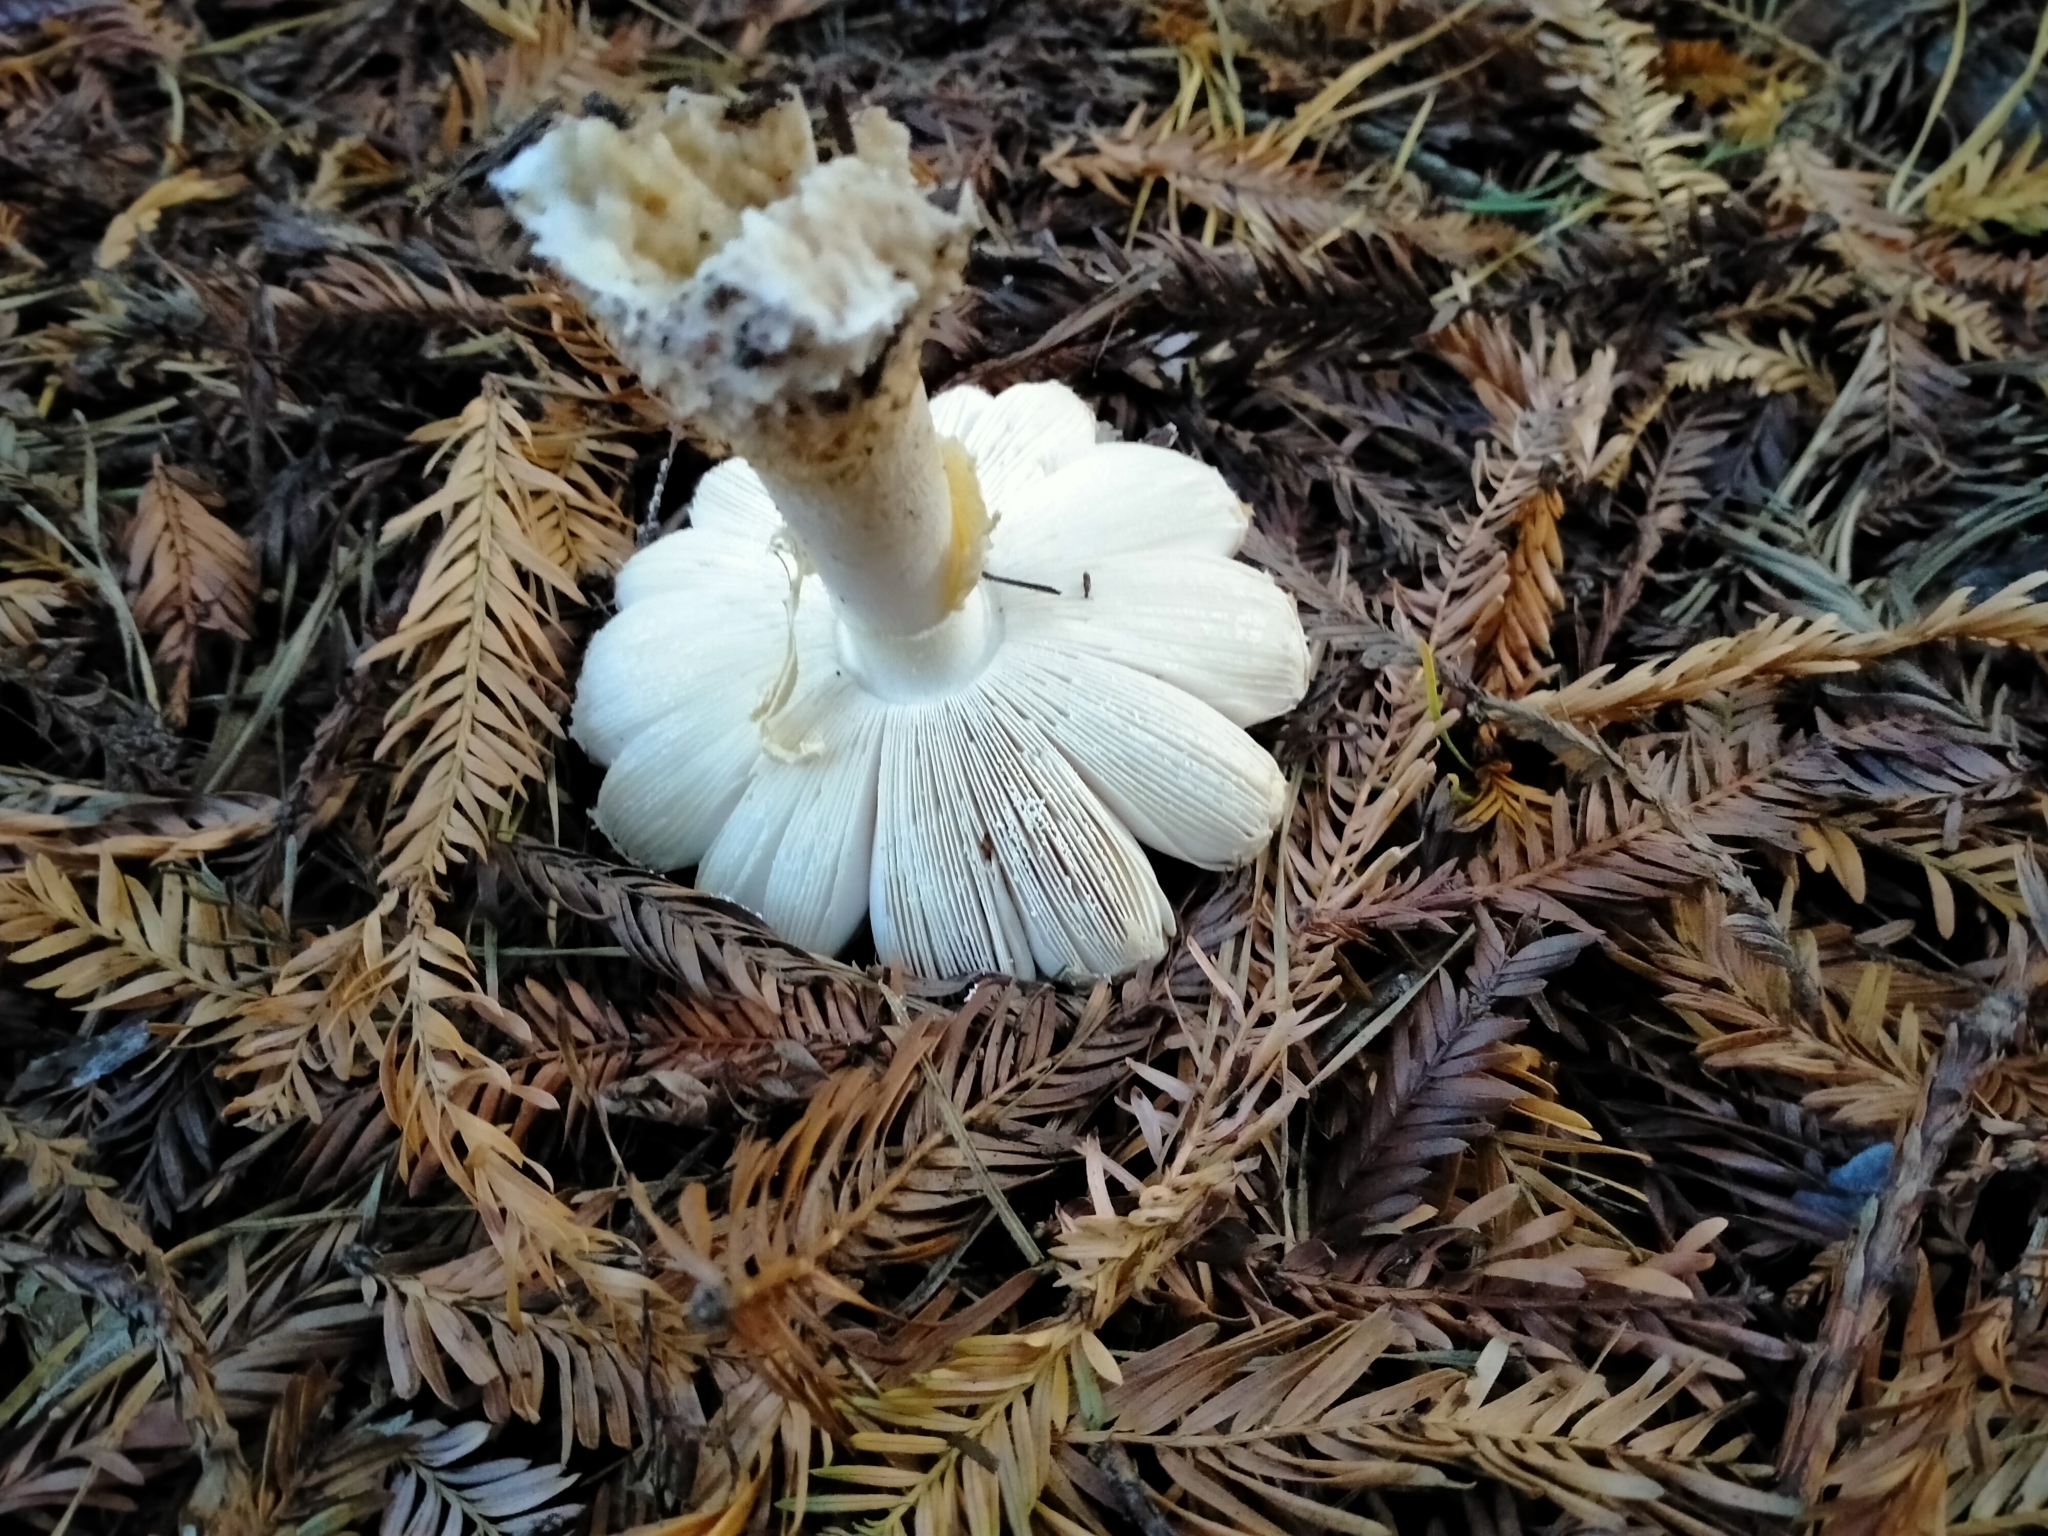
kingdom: Fungi
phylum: Basidiomycota
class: Agaricomycetes
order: Agaricales
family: Amanitaceae
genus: Amanita
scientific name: Amanita muscaria
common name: Fly agaric
